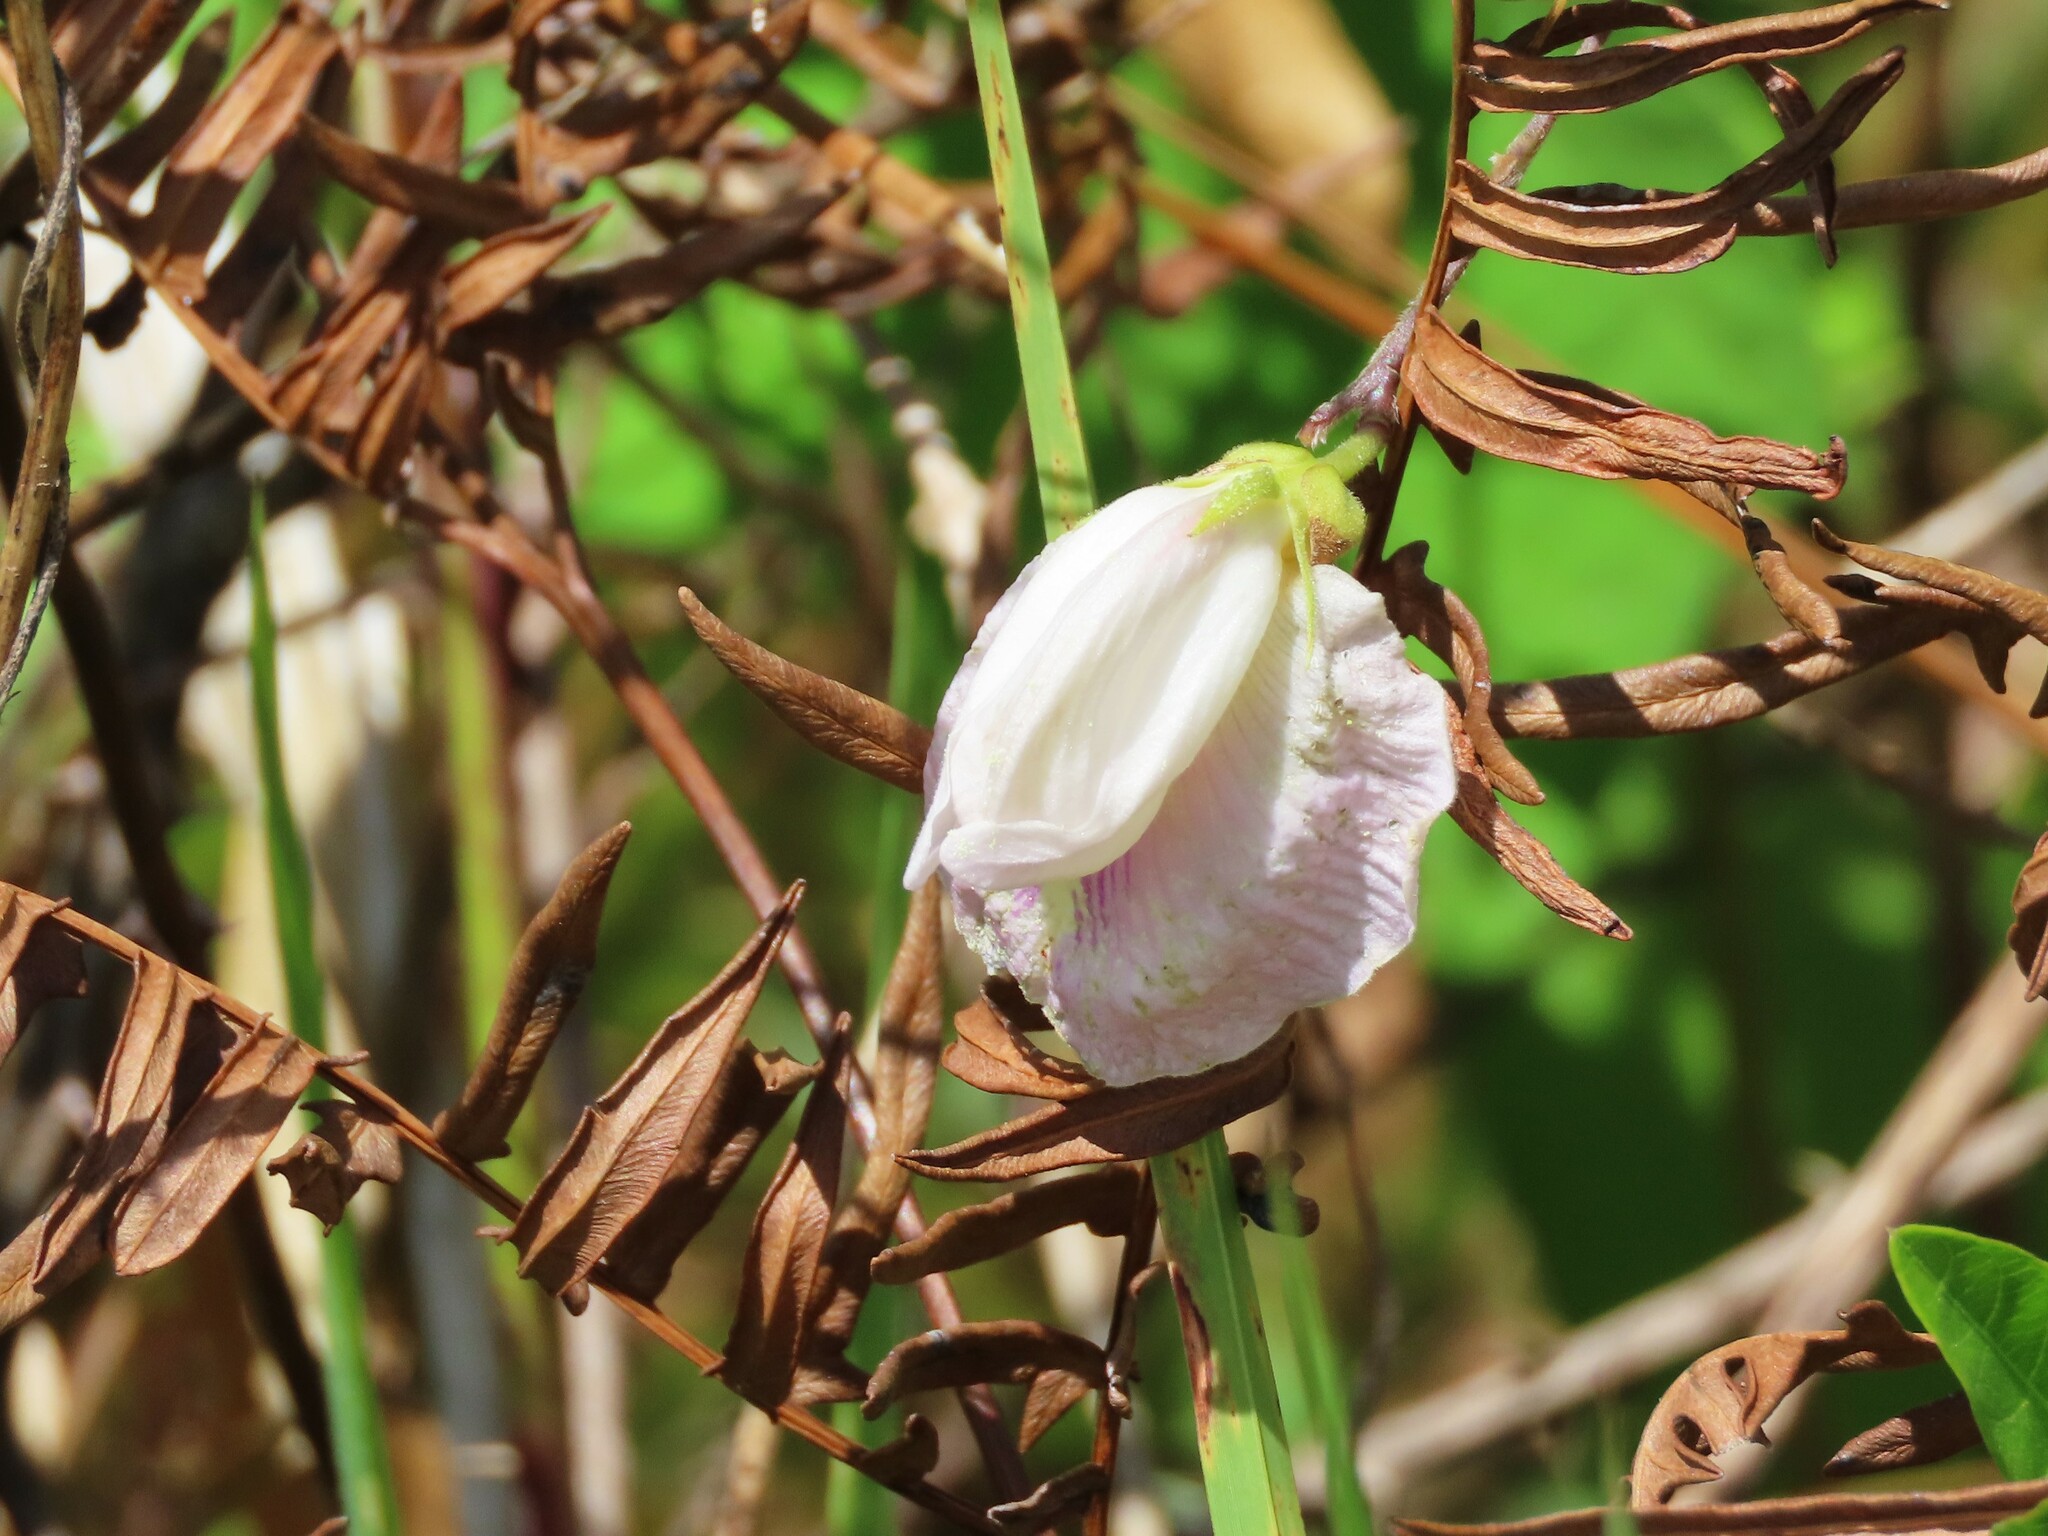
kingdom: Plantae
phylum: Tracheophyta
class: Magnoliopsida
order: Fabales
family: Fabaceae
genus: Centrosema
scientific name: Centrosema arenicola
